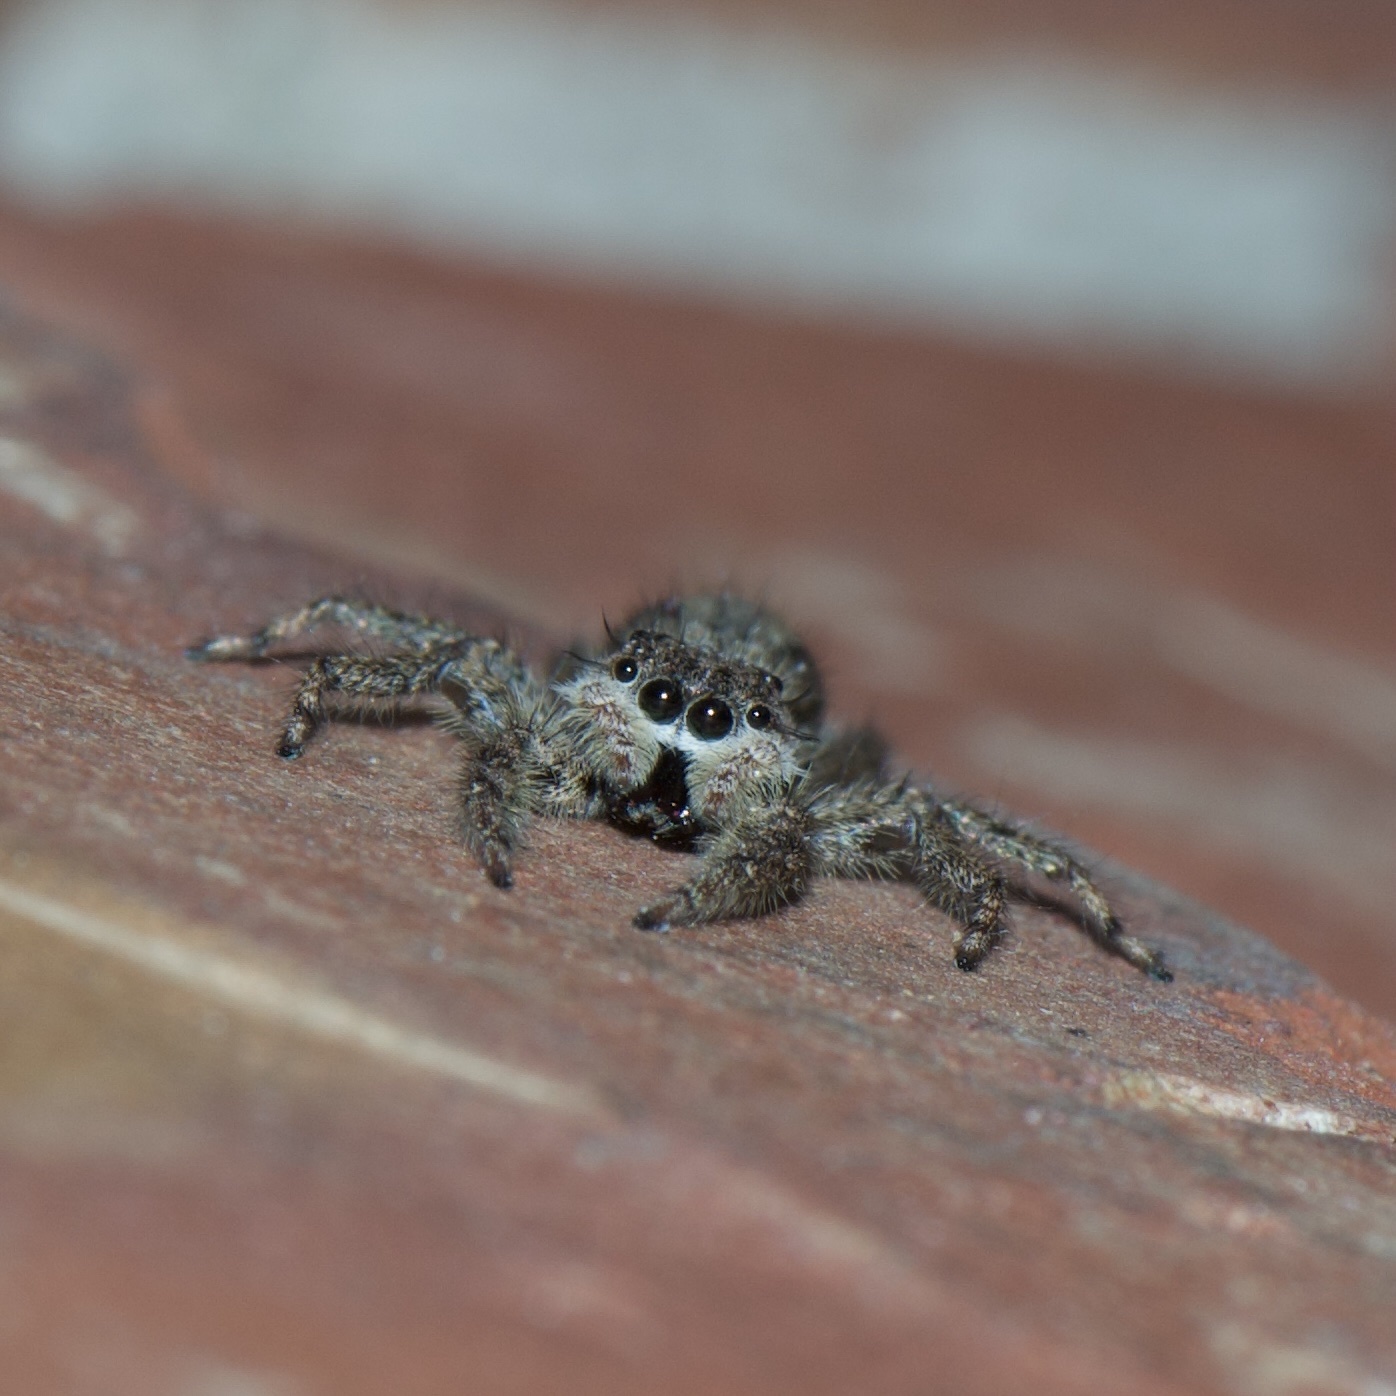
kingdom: Animalia
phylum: Arthropoda
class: Arachnida
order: Araneae
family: Salticidae
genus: Platycryptus
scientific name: Platycryptus undatus
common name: Tan jumping spider
